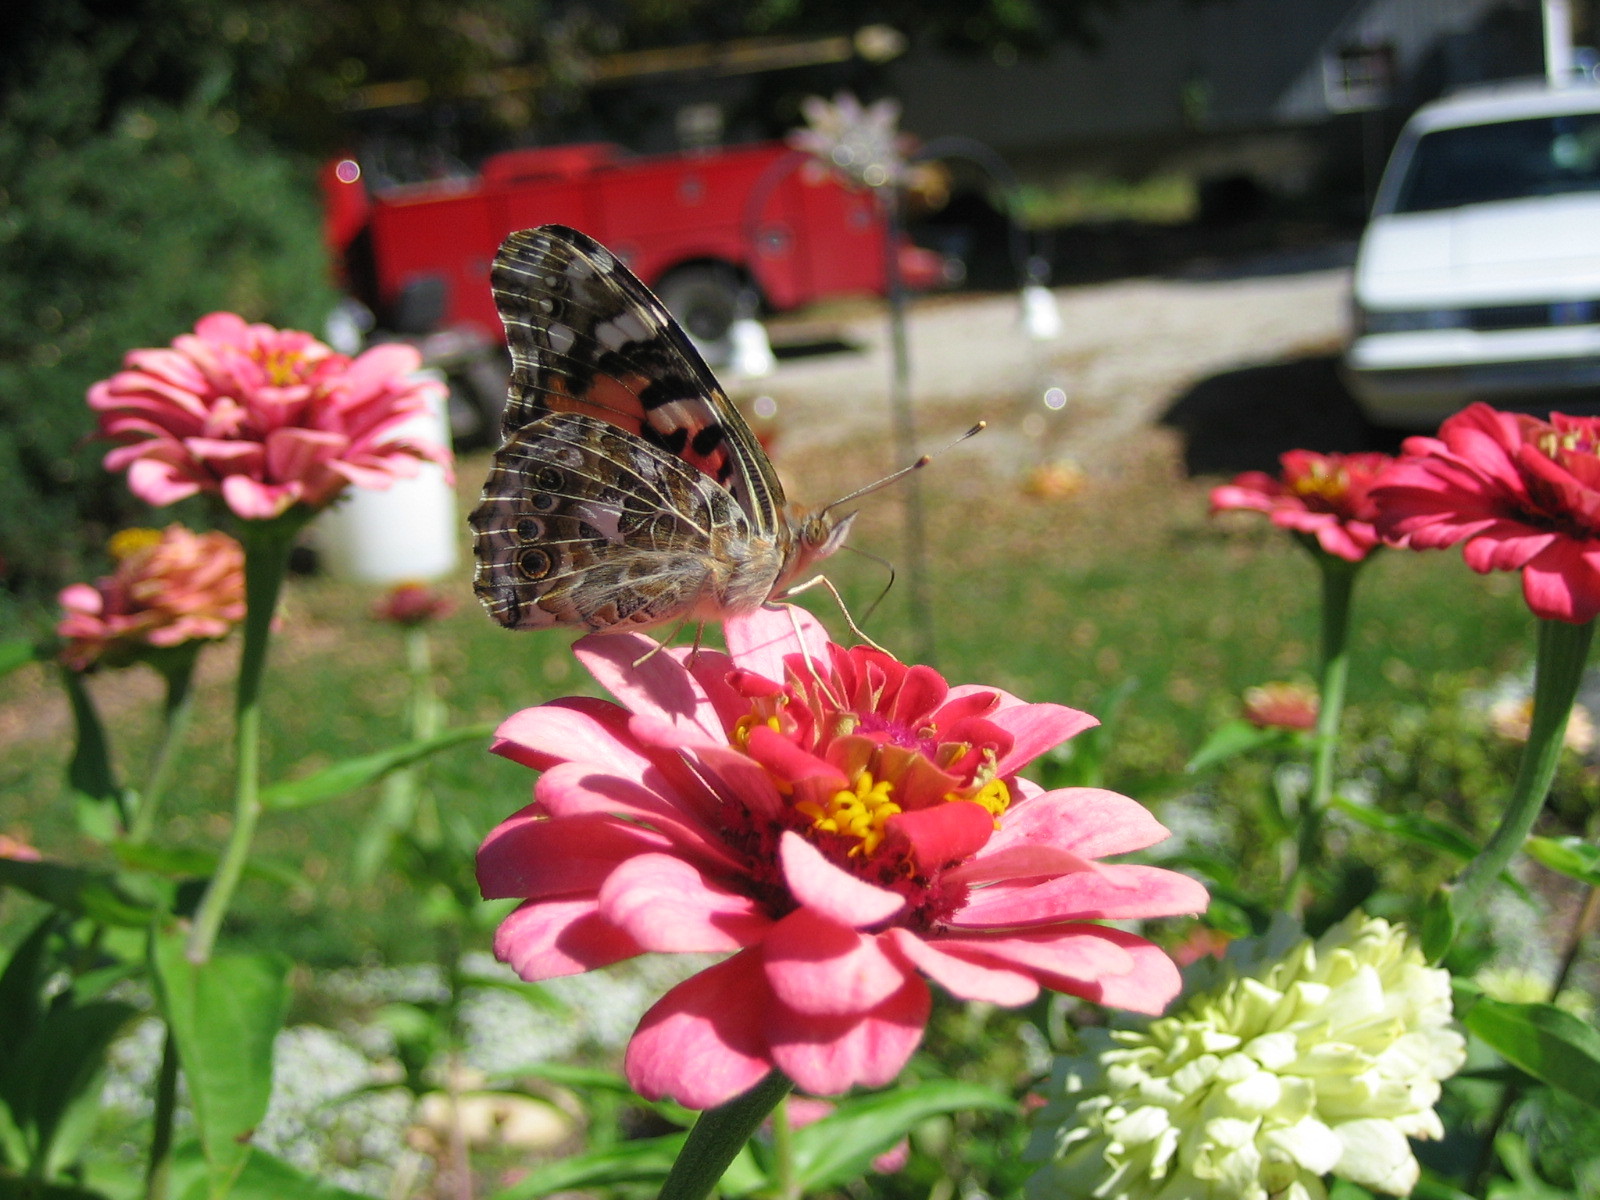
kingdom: Animalia
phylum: Arthropoda
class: Insecta
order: Lepidoptera
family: Nymphalidae
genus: Vanessa
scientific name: Vanessa cardui
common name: Painted lady
